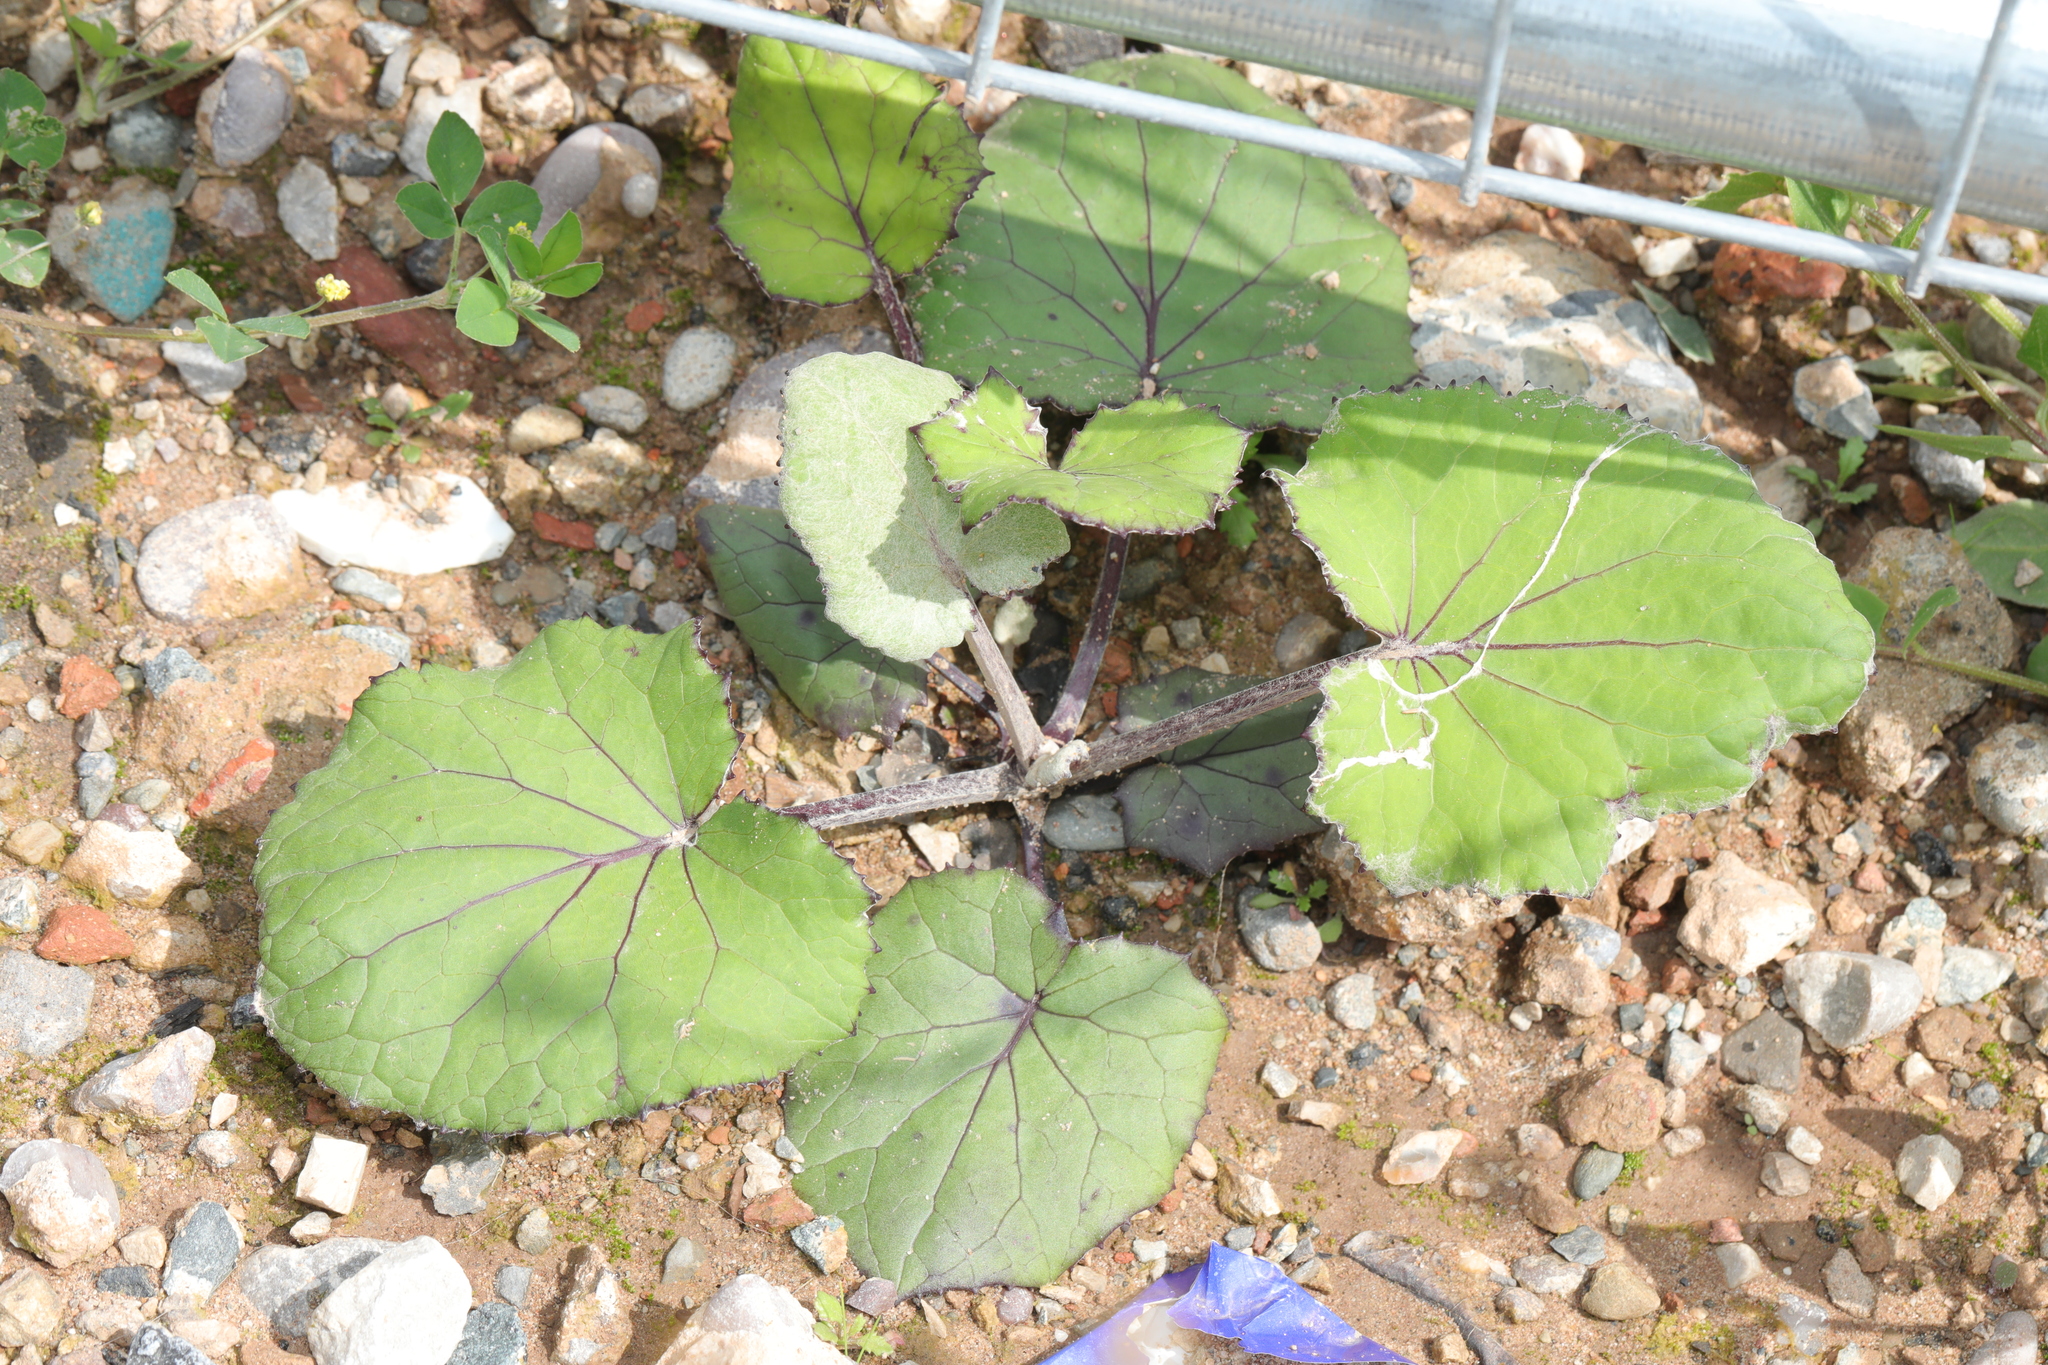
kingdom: Plantae
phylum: Tracheophyta
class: Magnoliopsida
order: Asterales
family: Asteraceae
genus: Tussilago
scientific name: Tussilago farfara
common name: Coltsfoot
